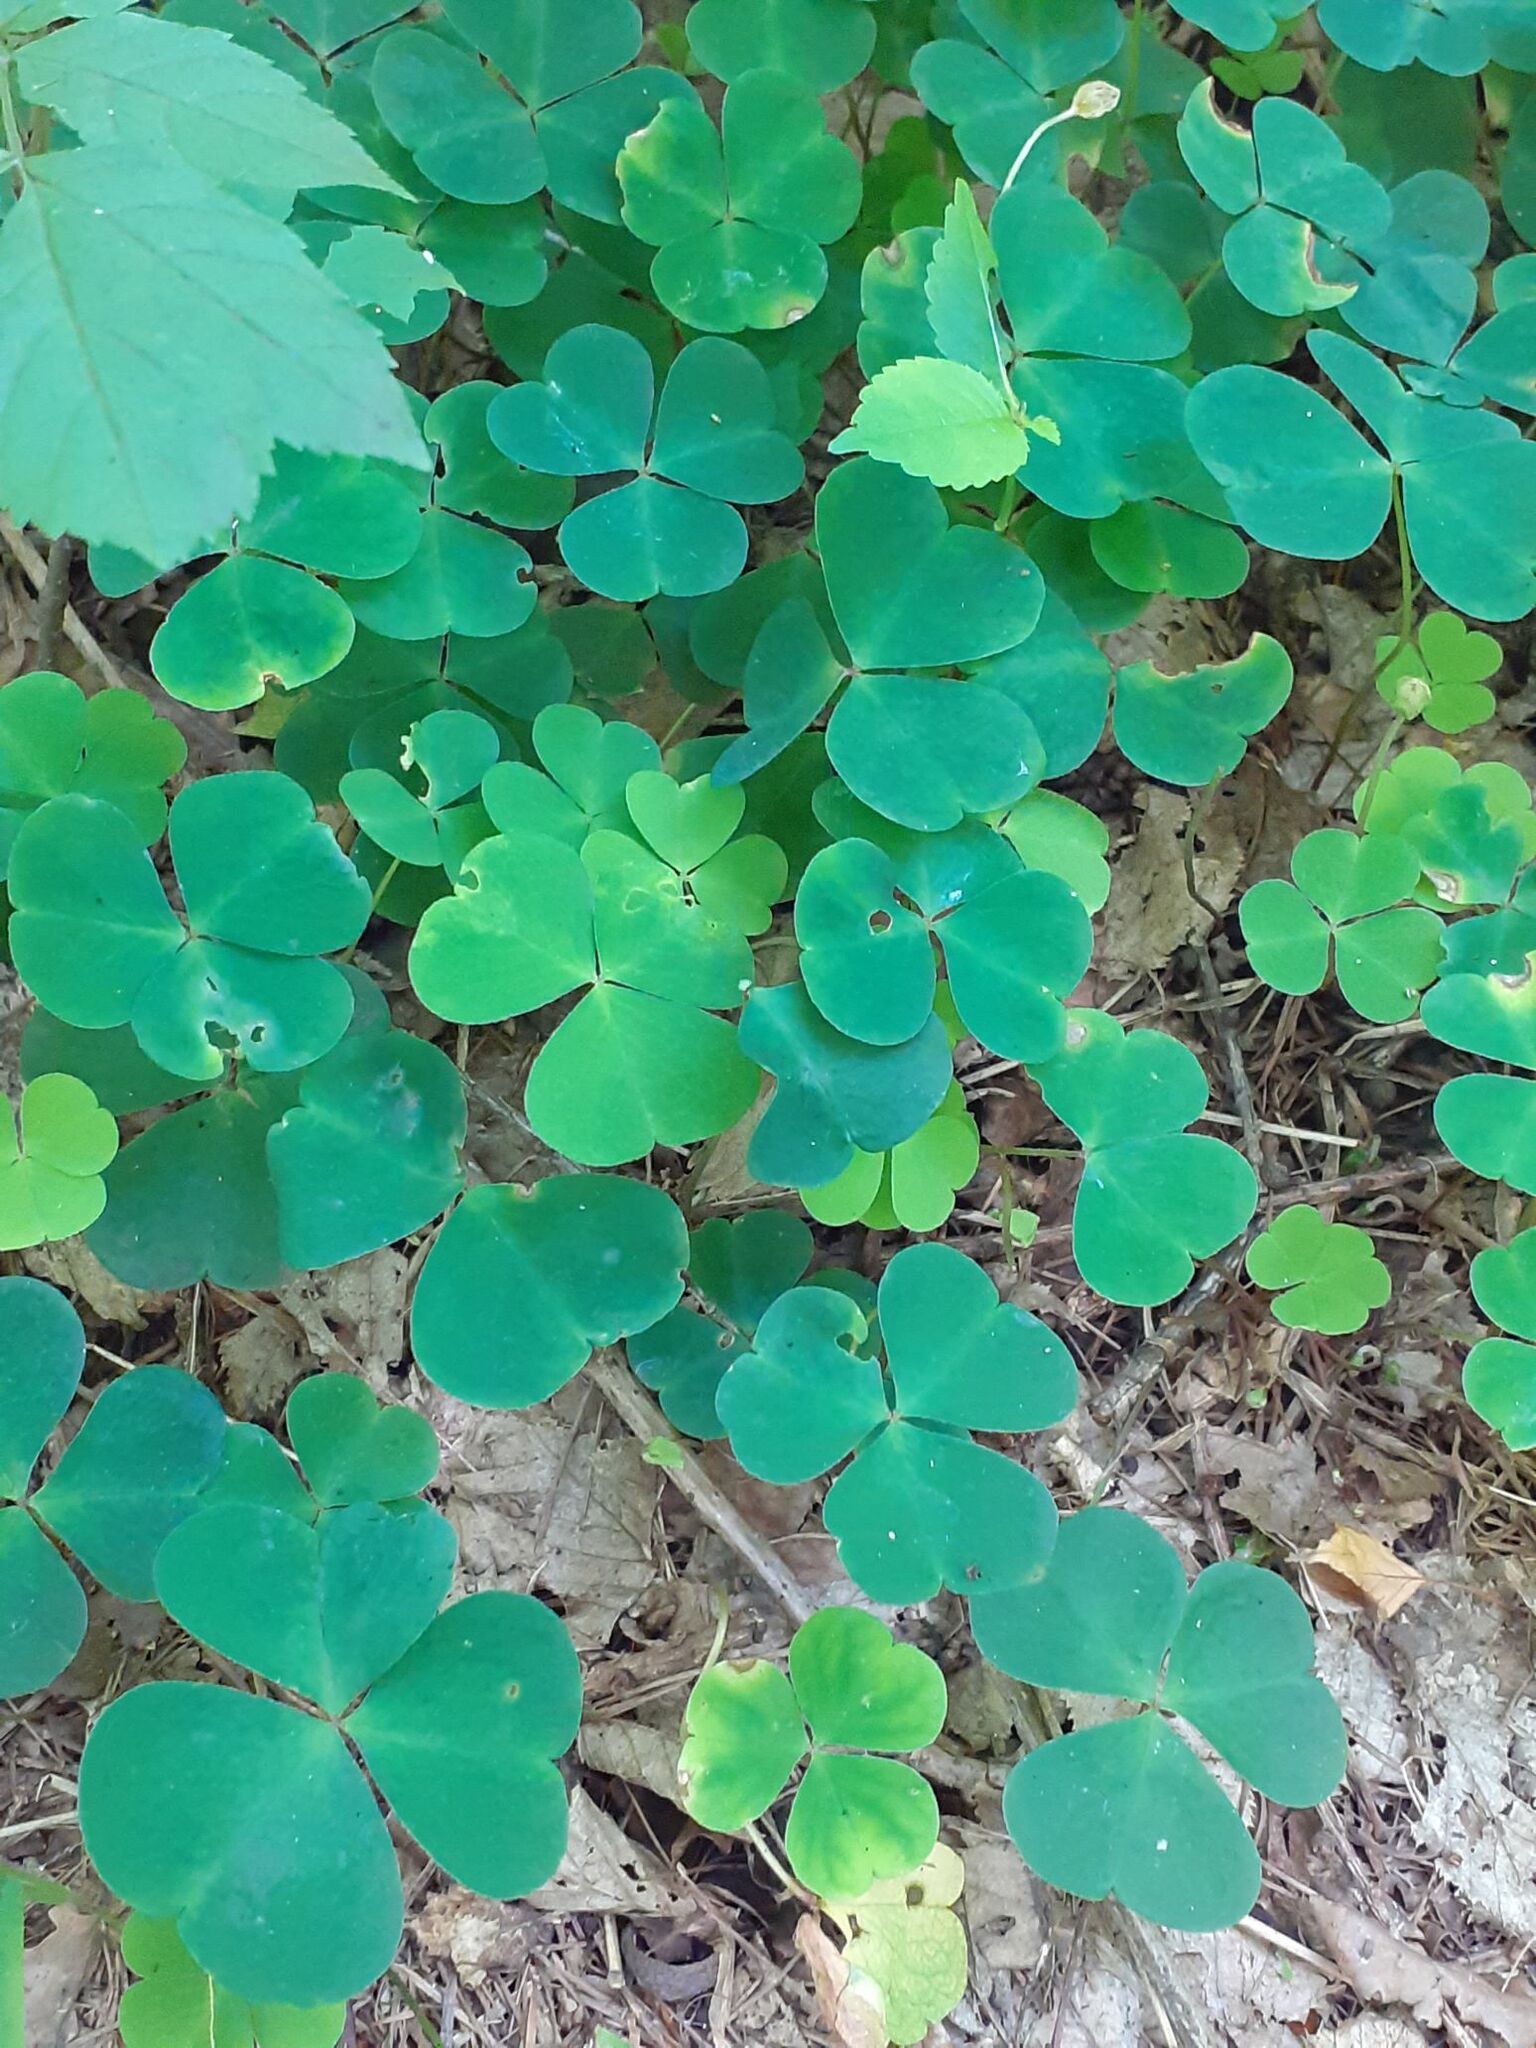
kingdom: Plantae
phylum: Tracheophyta
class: Magnoliopsida
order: Oxalidales
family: Oxalidaceae
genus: Oxalis
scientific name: Oxalis acetosella
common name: Wood-sorrel
